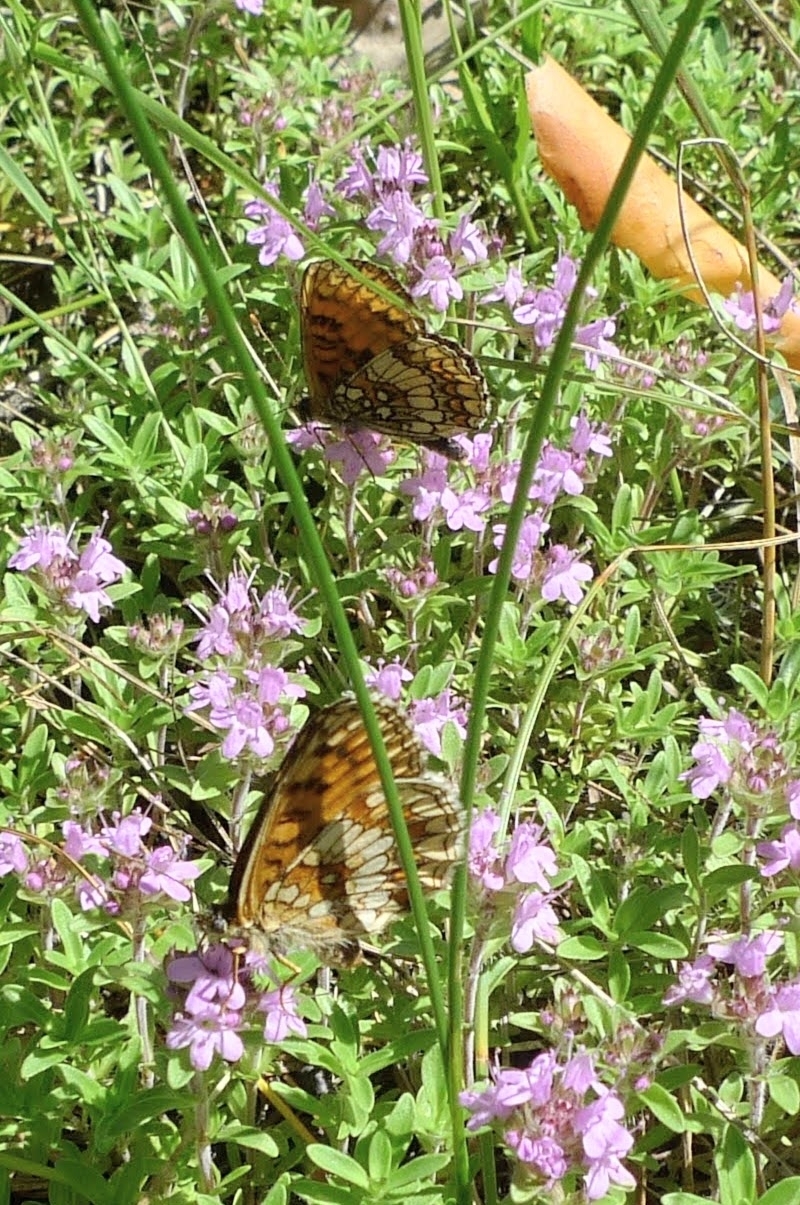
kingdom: Animalia
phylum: Arthropoda
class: Insecta
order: Lepidoptera
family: Nymphalidae
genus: Melitaea
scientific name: Melitaea athalia
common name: Heath fritillary
